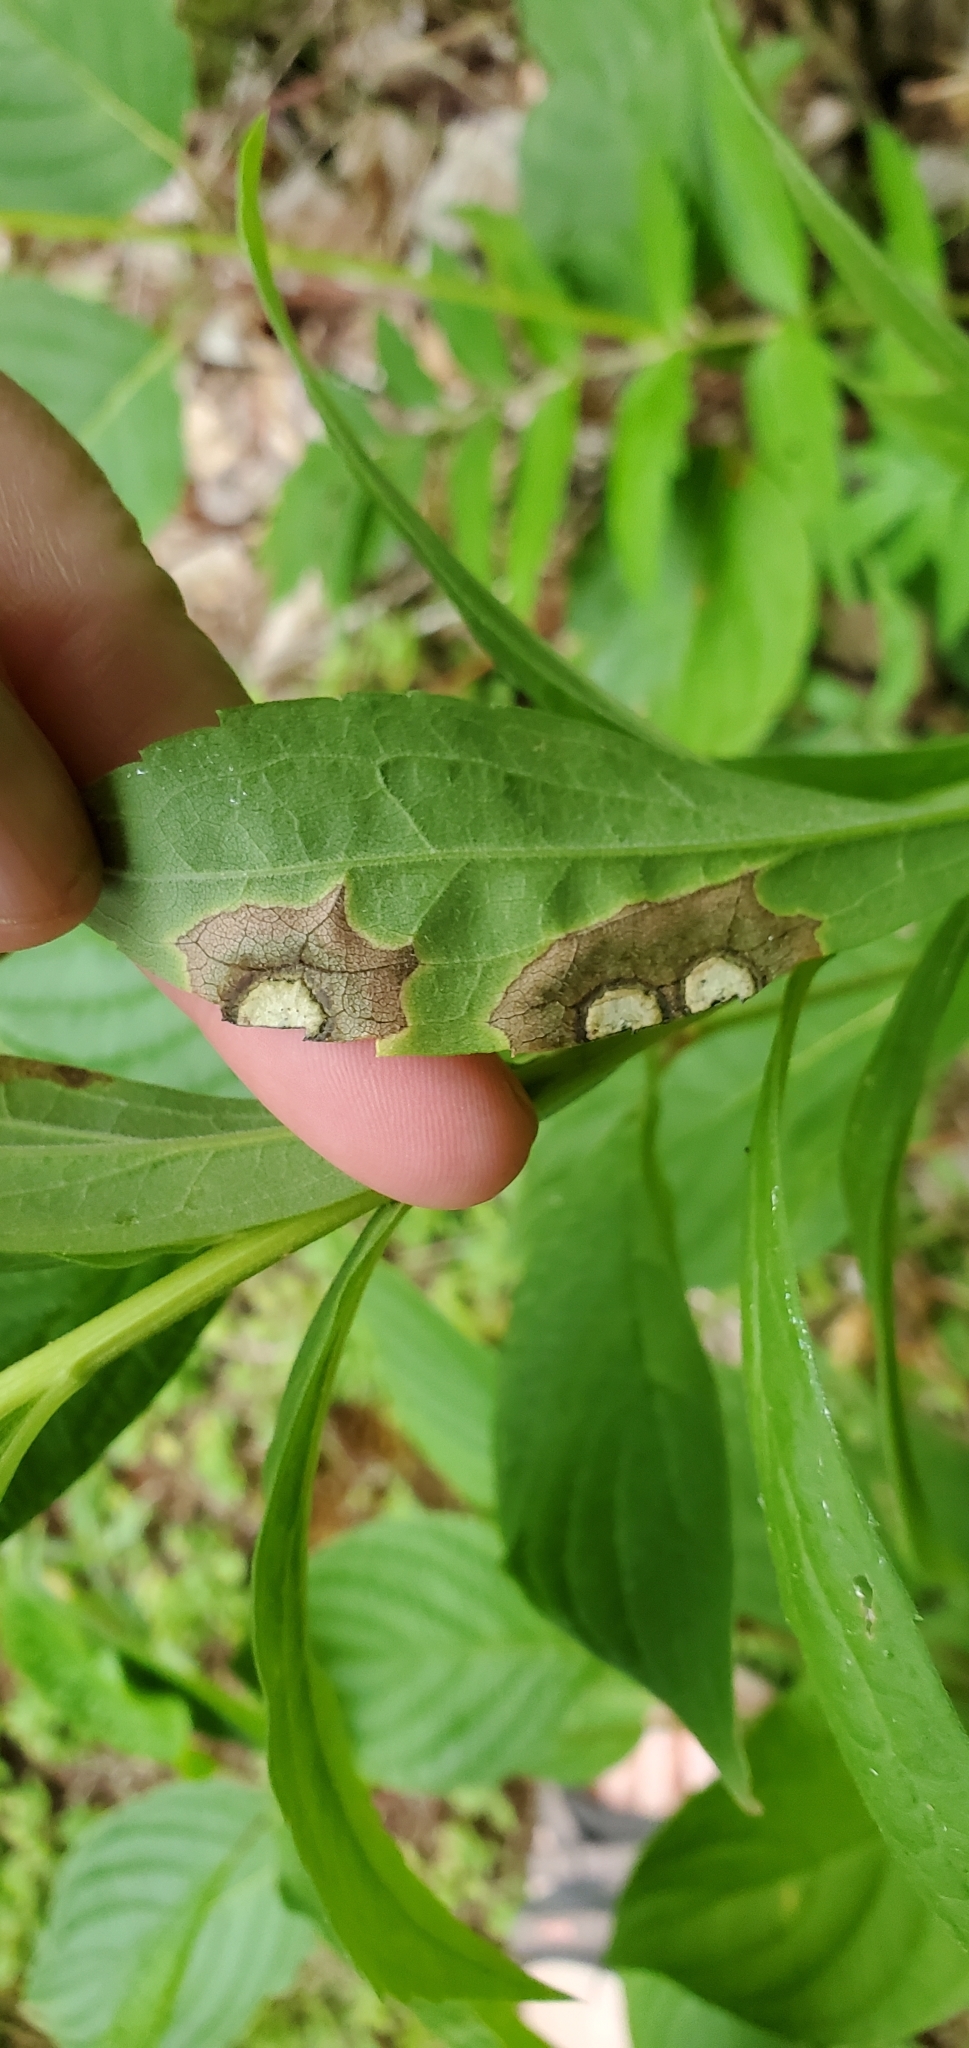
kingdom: Animalia
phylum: Arthropoda
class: Insecta
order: Diptera
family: Cecidomyiidae
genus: Asteromyia
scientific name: Asteromyia carbonifera
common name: Carbonifera goldenrod gall midge
